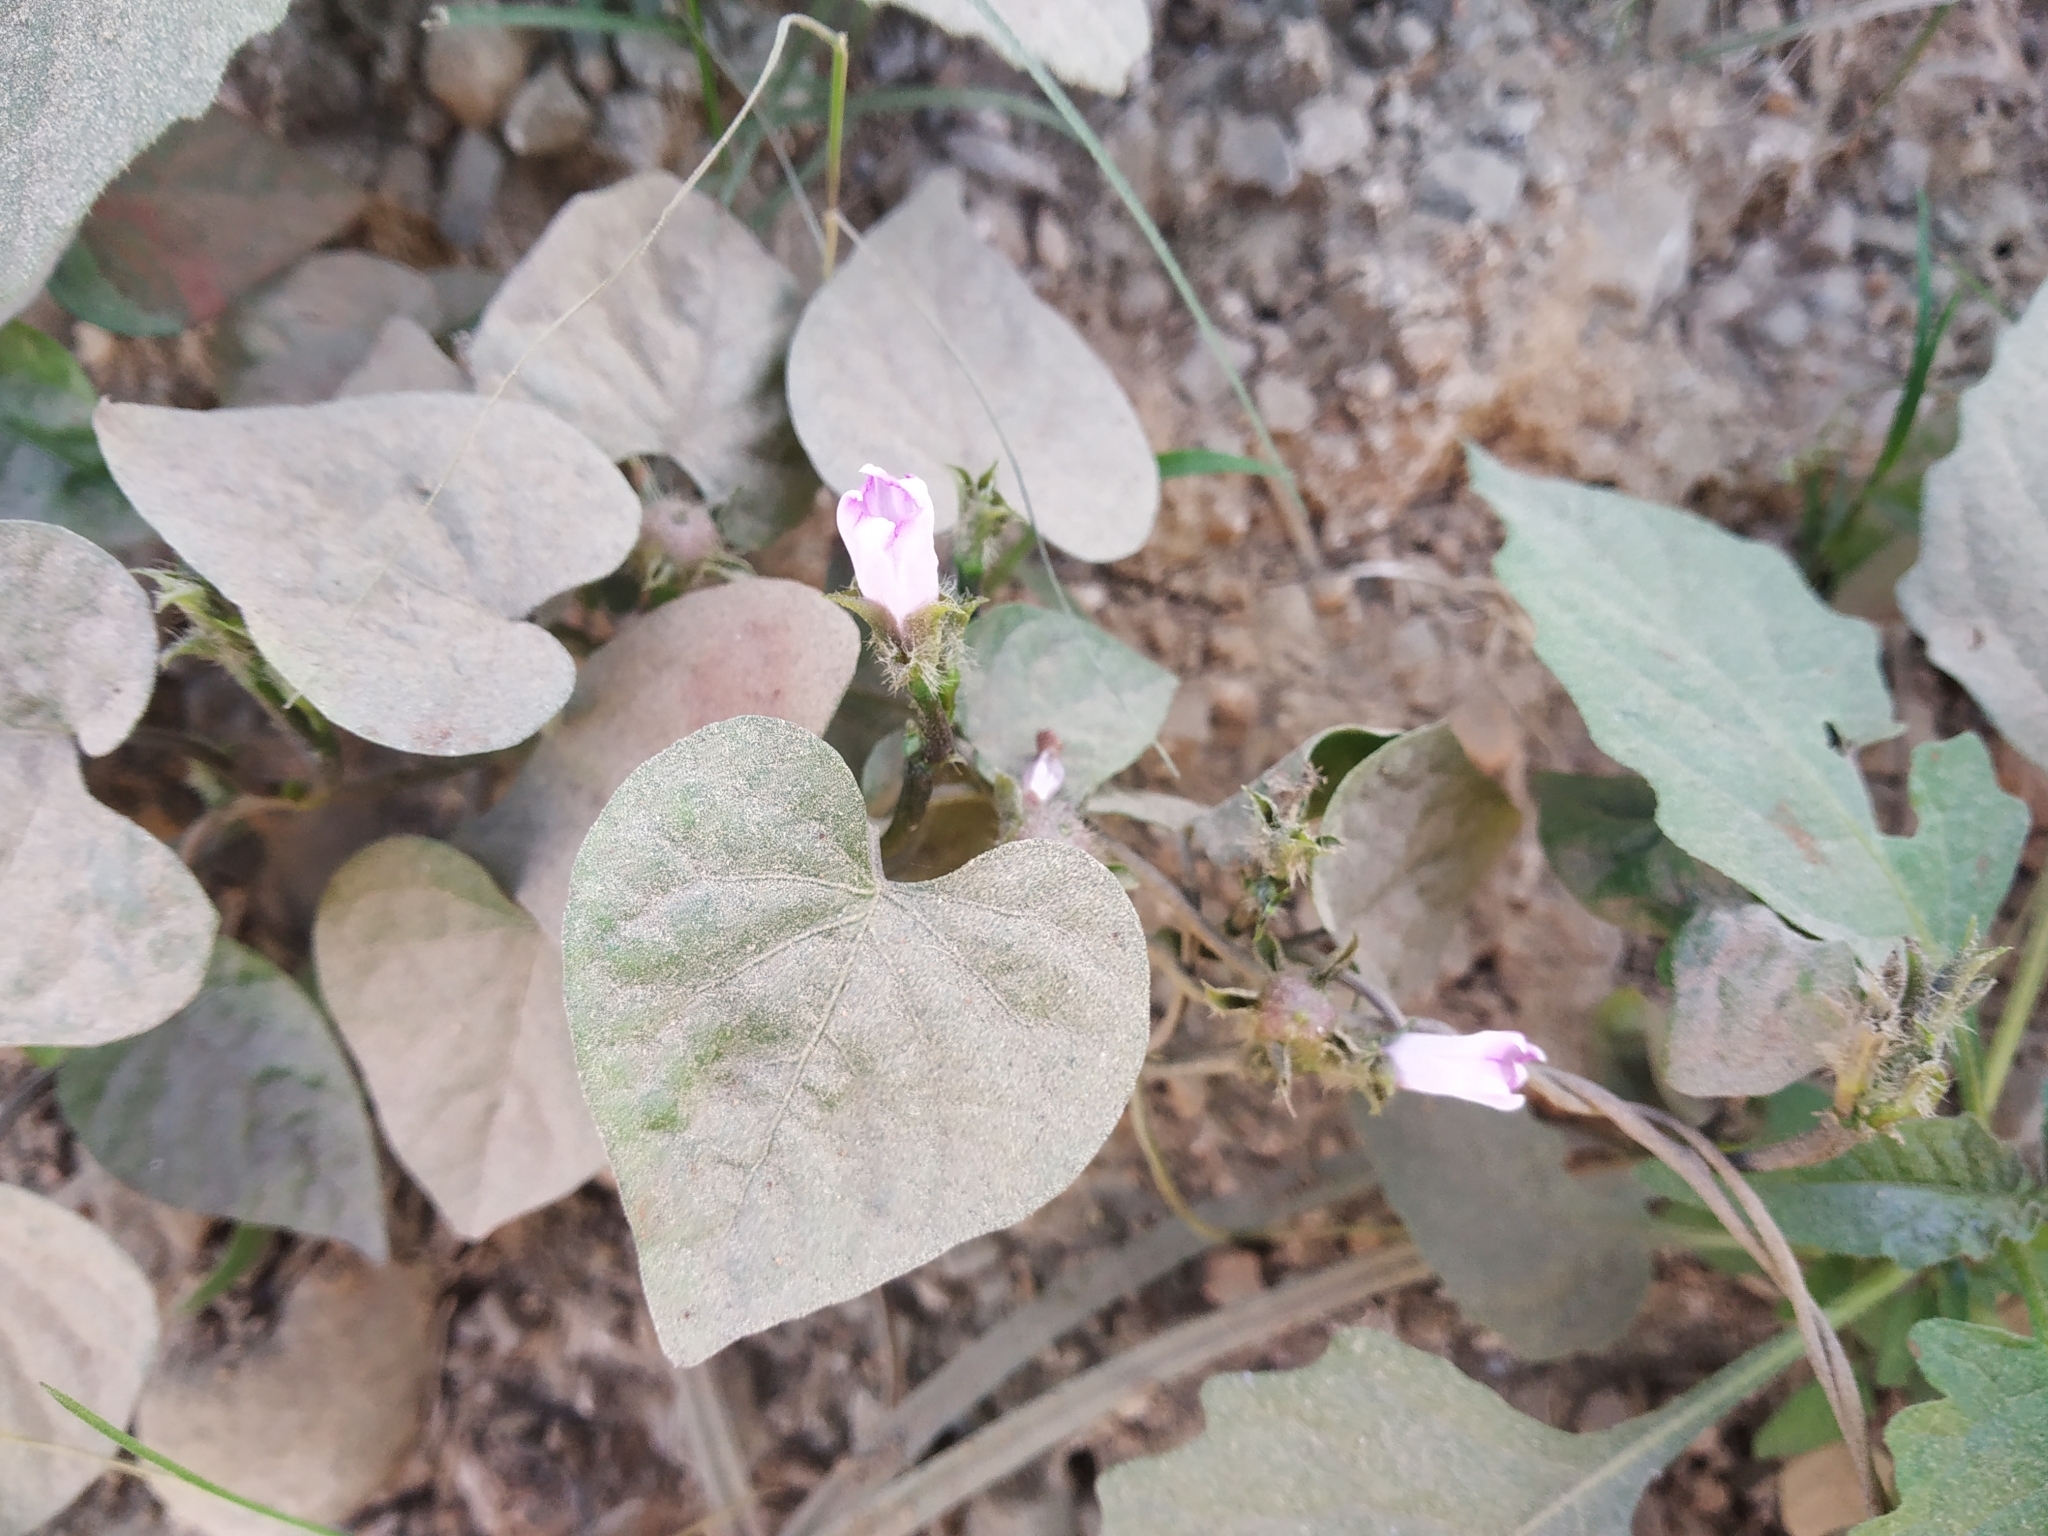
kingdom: Plantae
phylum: Tracheophyta
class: Magnoliopsida
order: Solanales
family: Convolvulaceae
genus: Ipomoea
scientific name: Ipomoea triloba
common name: Little-bell
